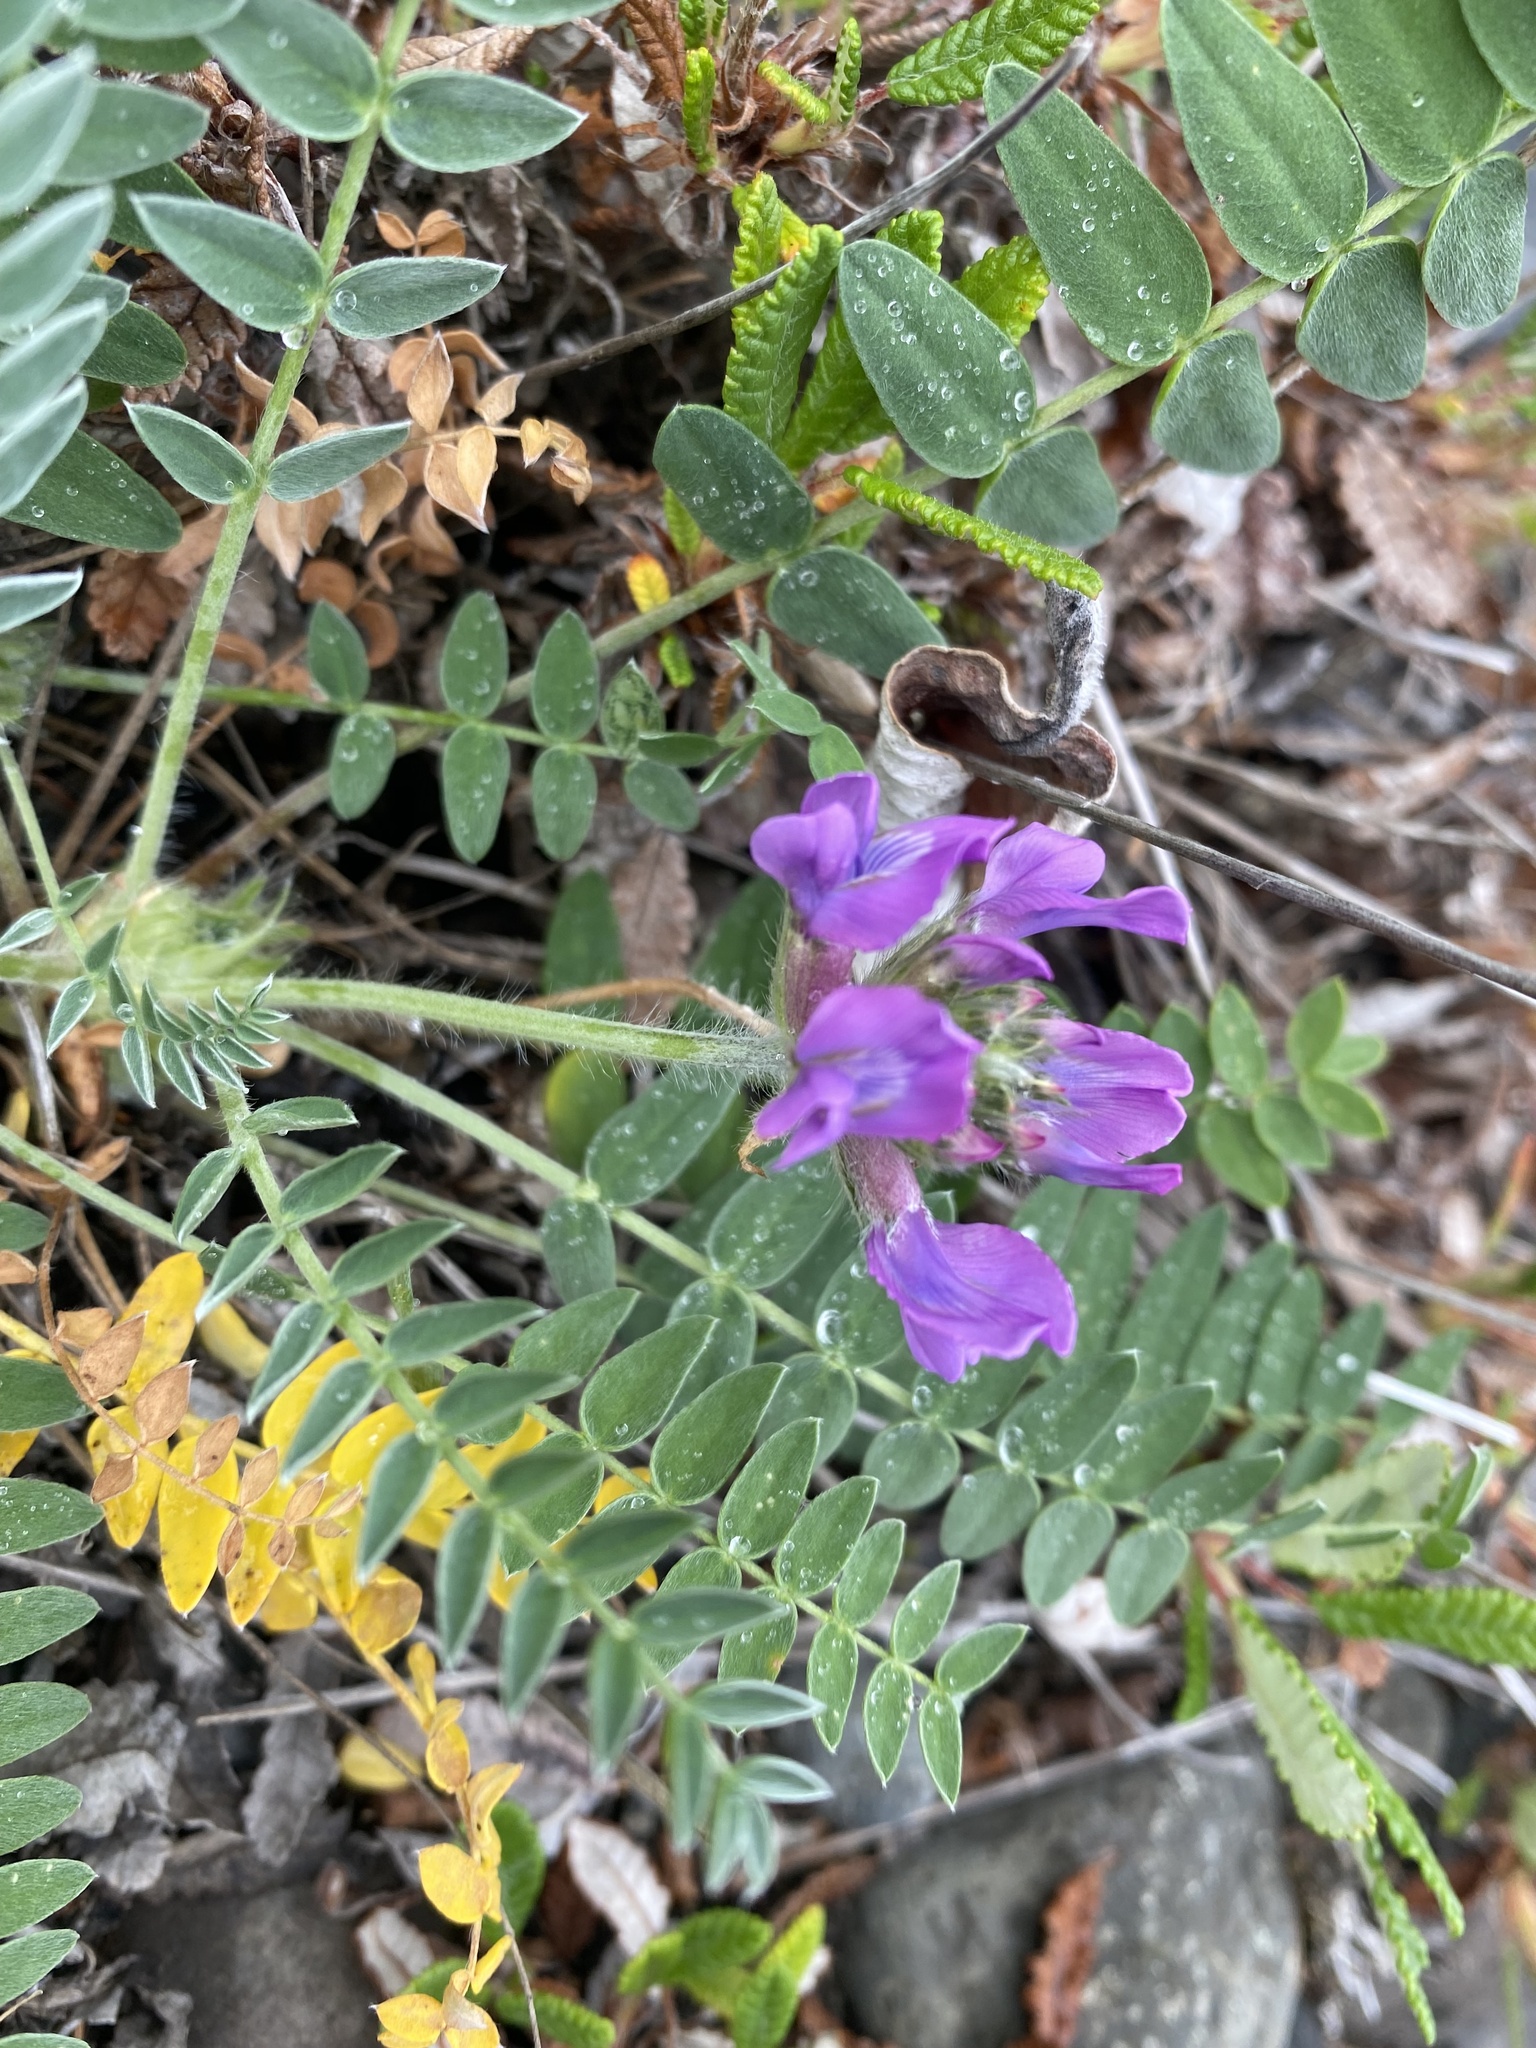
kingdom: Plantae
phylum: Tracheophyta
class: Magnoliopsida
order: Fabales
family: Fabaceae
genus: Oxytropis
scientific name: Oxytropis arctica
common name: Arctic locoweed
